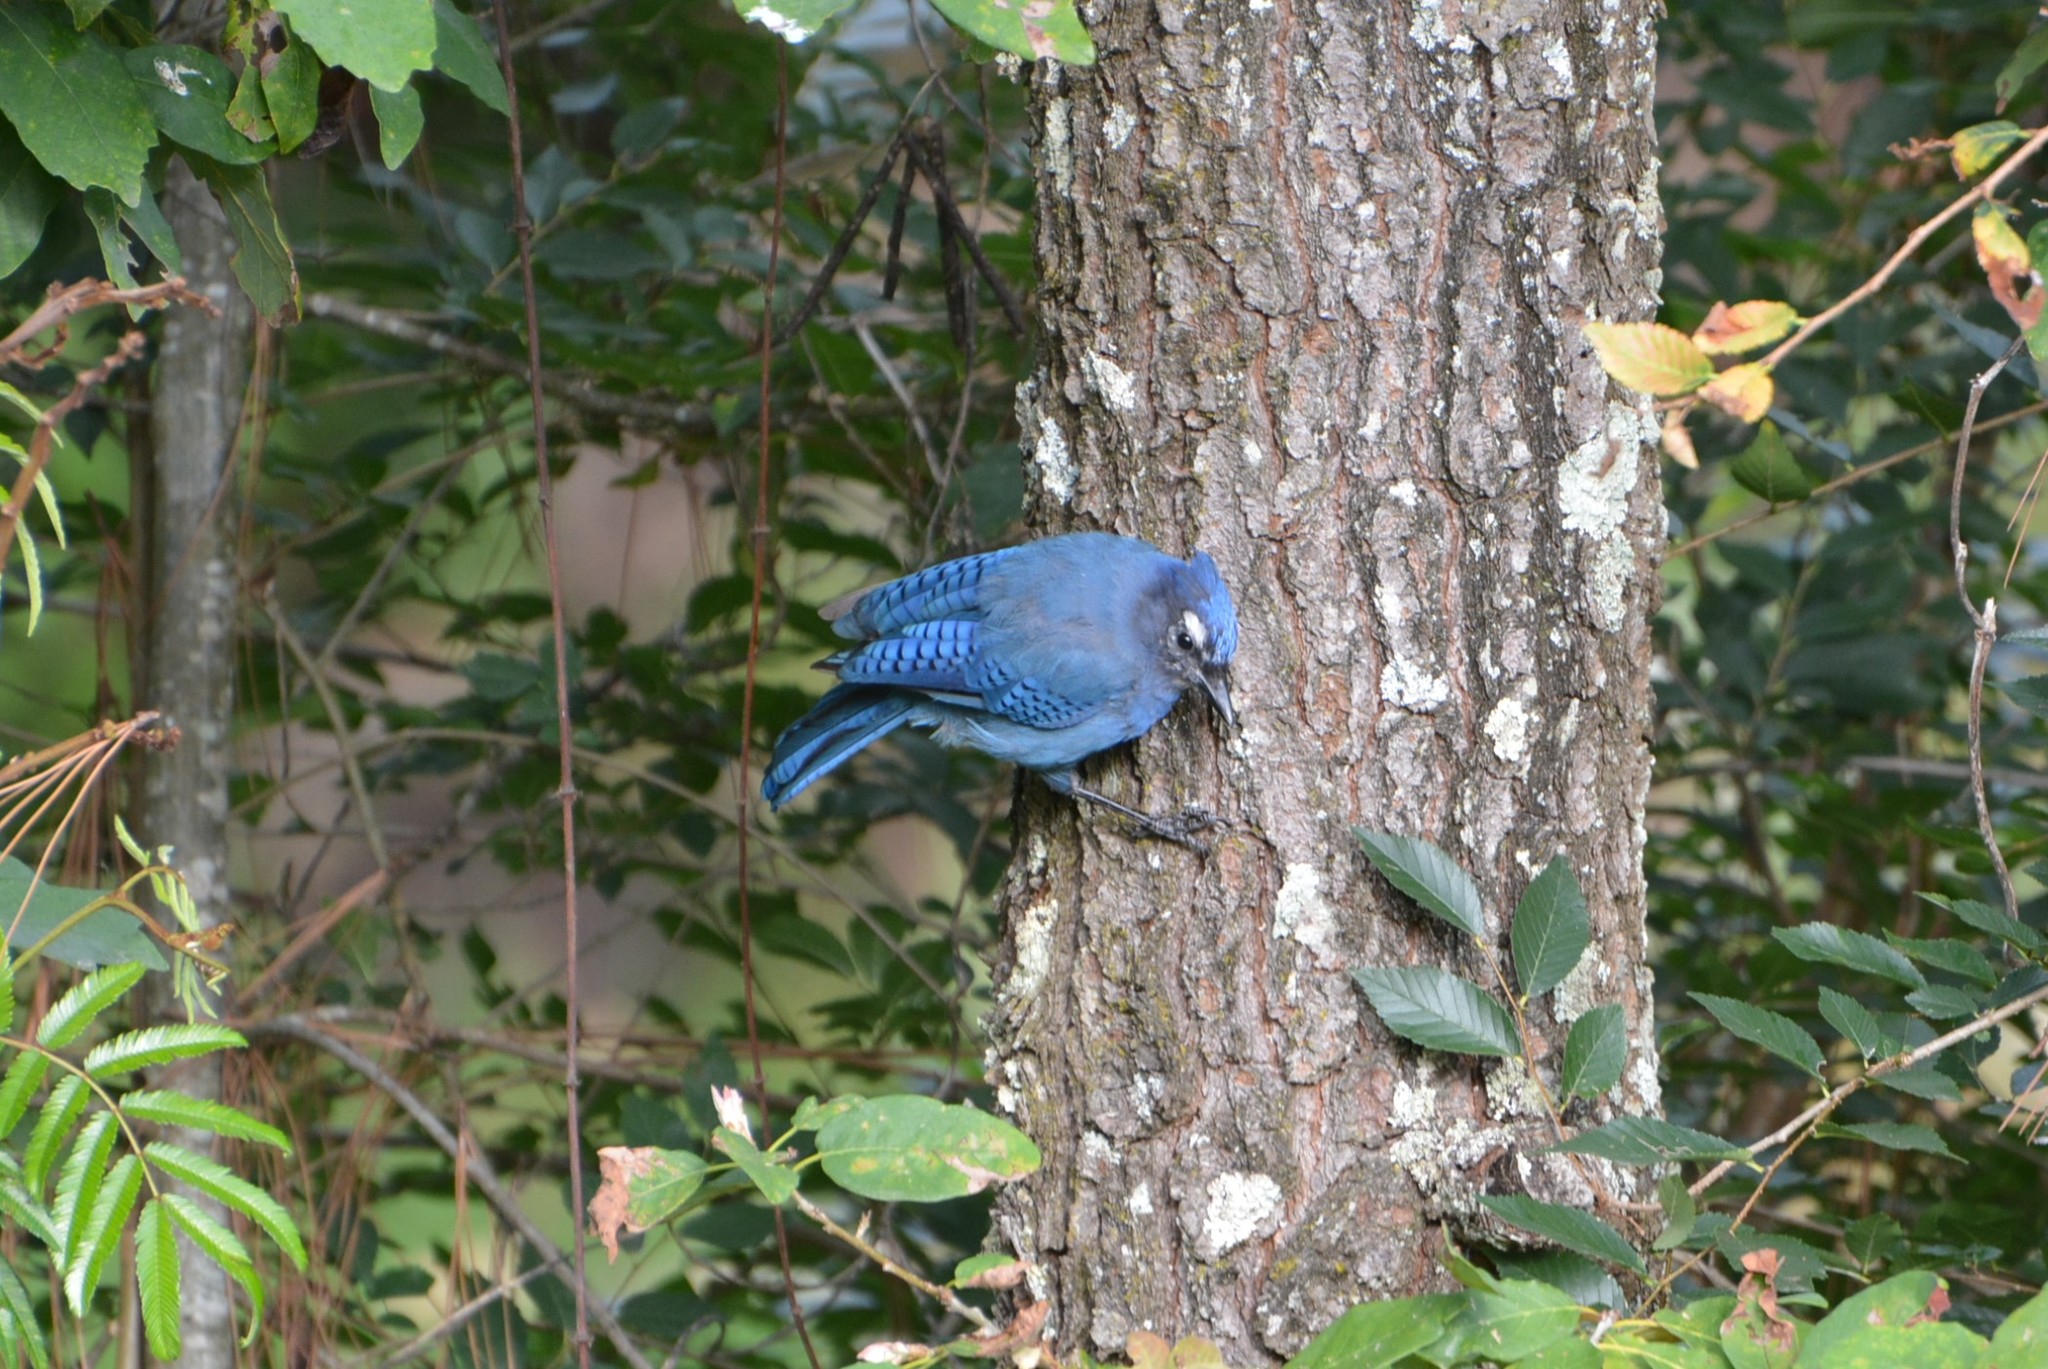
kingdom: Animalia
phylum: Chordata
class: Aves
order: Passeriformes
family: Corvidae
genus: Cyanocitta
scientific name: Cyanocitta stelleri
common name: Steller's jay
